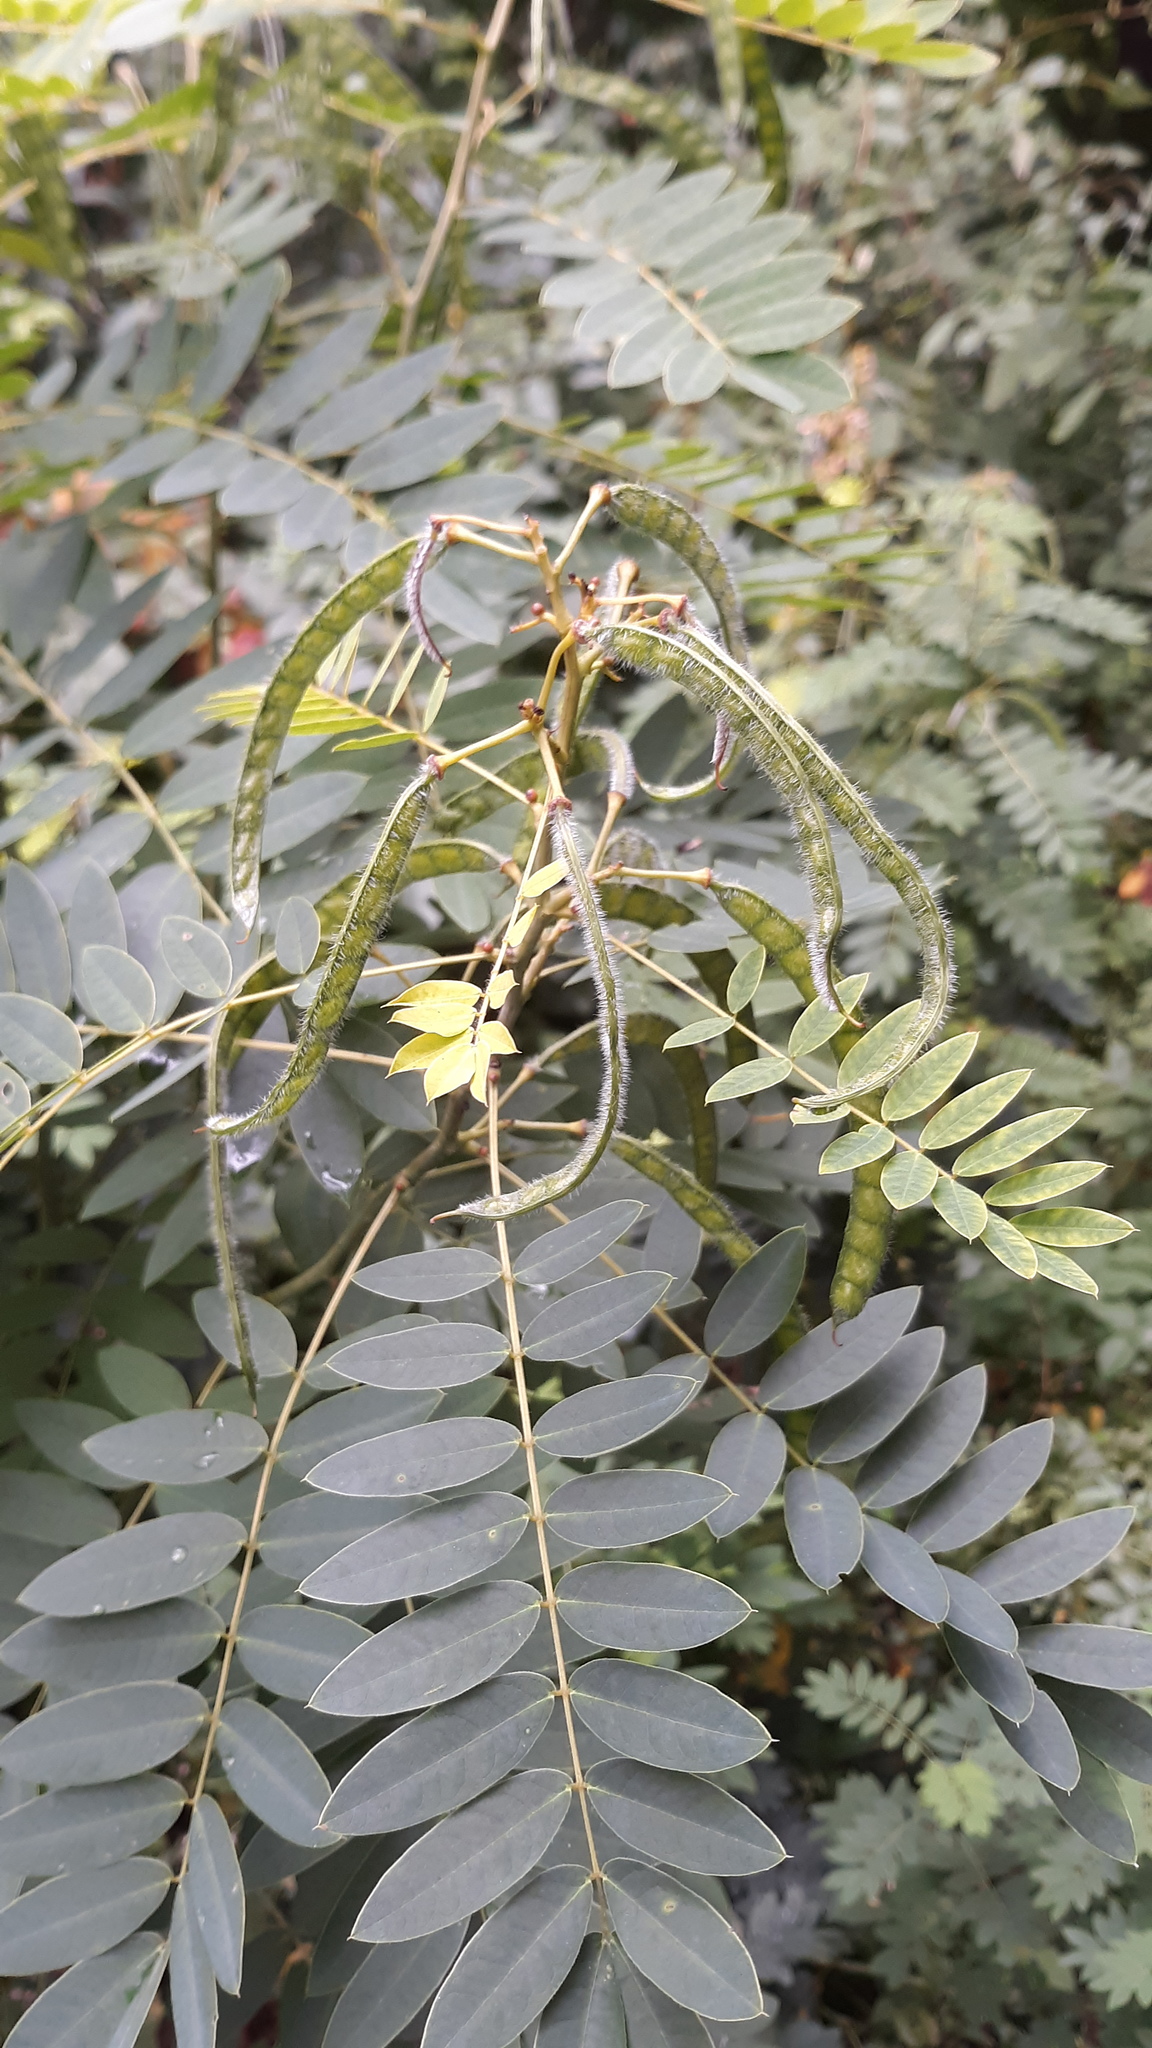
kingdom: Plantae
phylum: Tracheophyta
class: Magnoliopsida
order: Fabales
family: Fabaceae
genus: Senna
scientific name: Senna hebecarpa
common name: Wild senna
